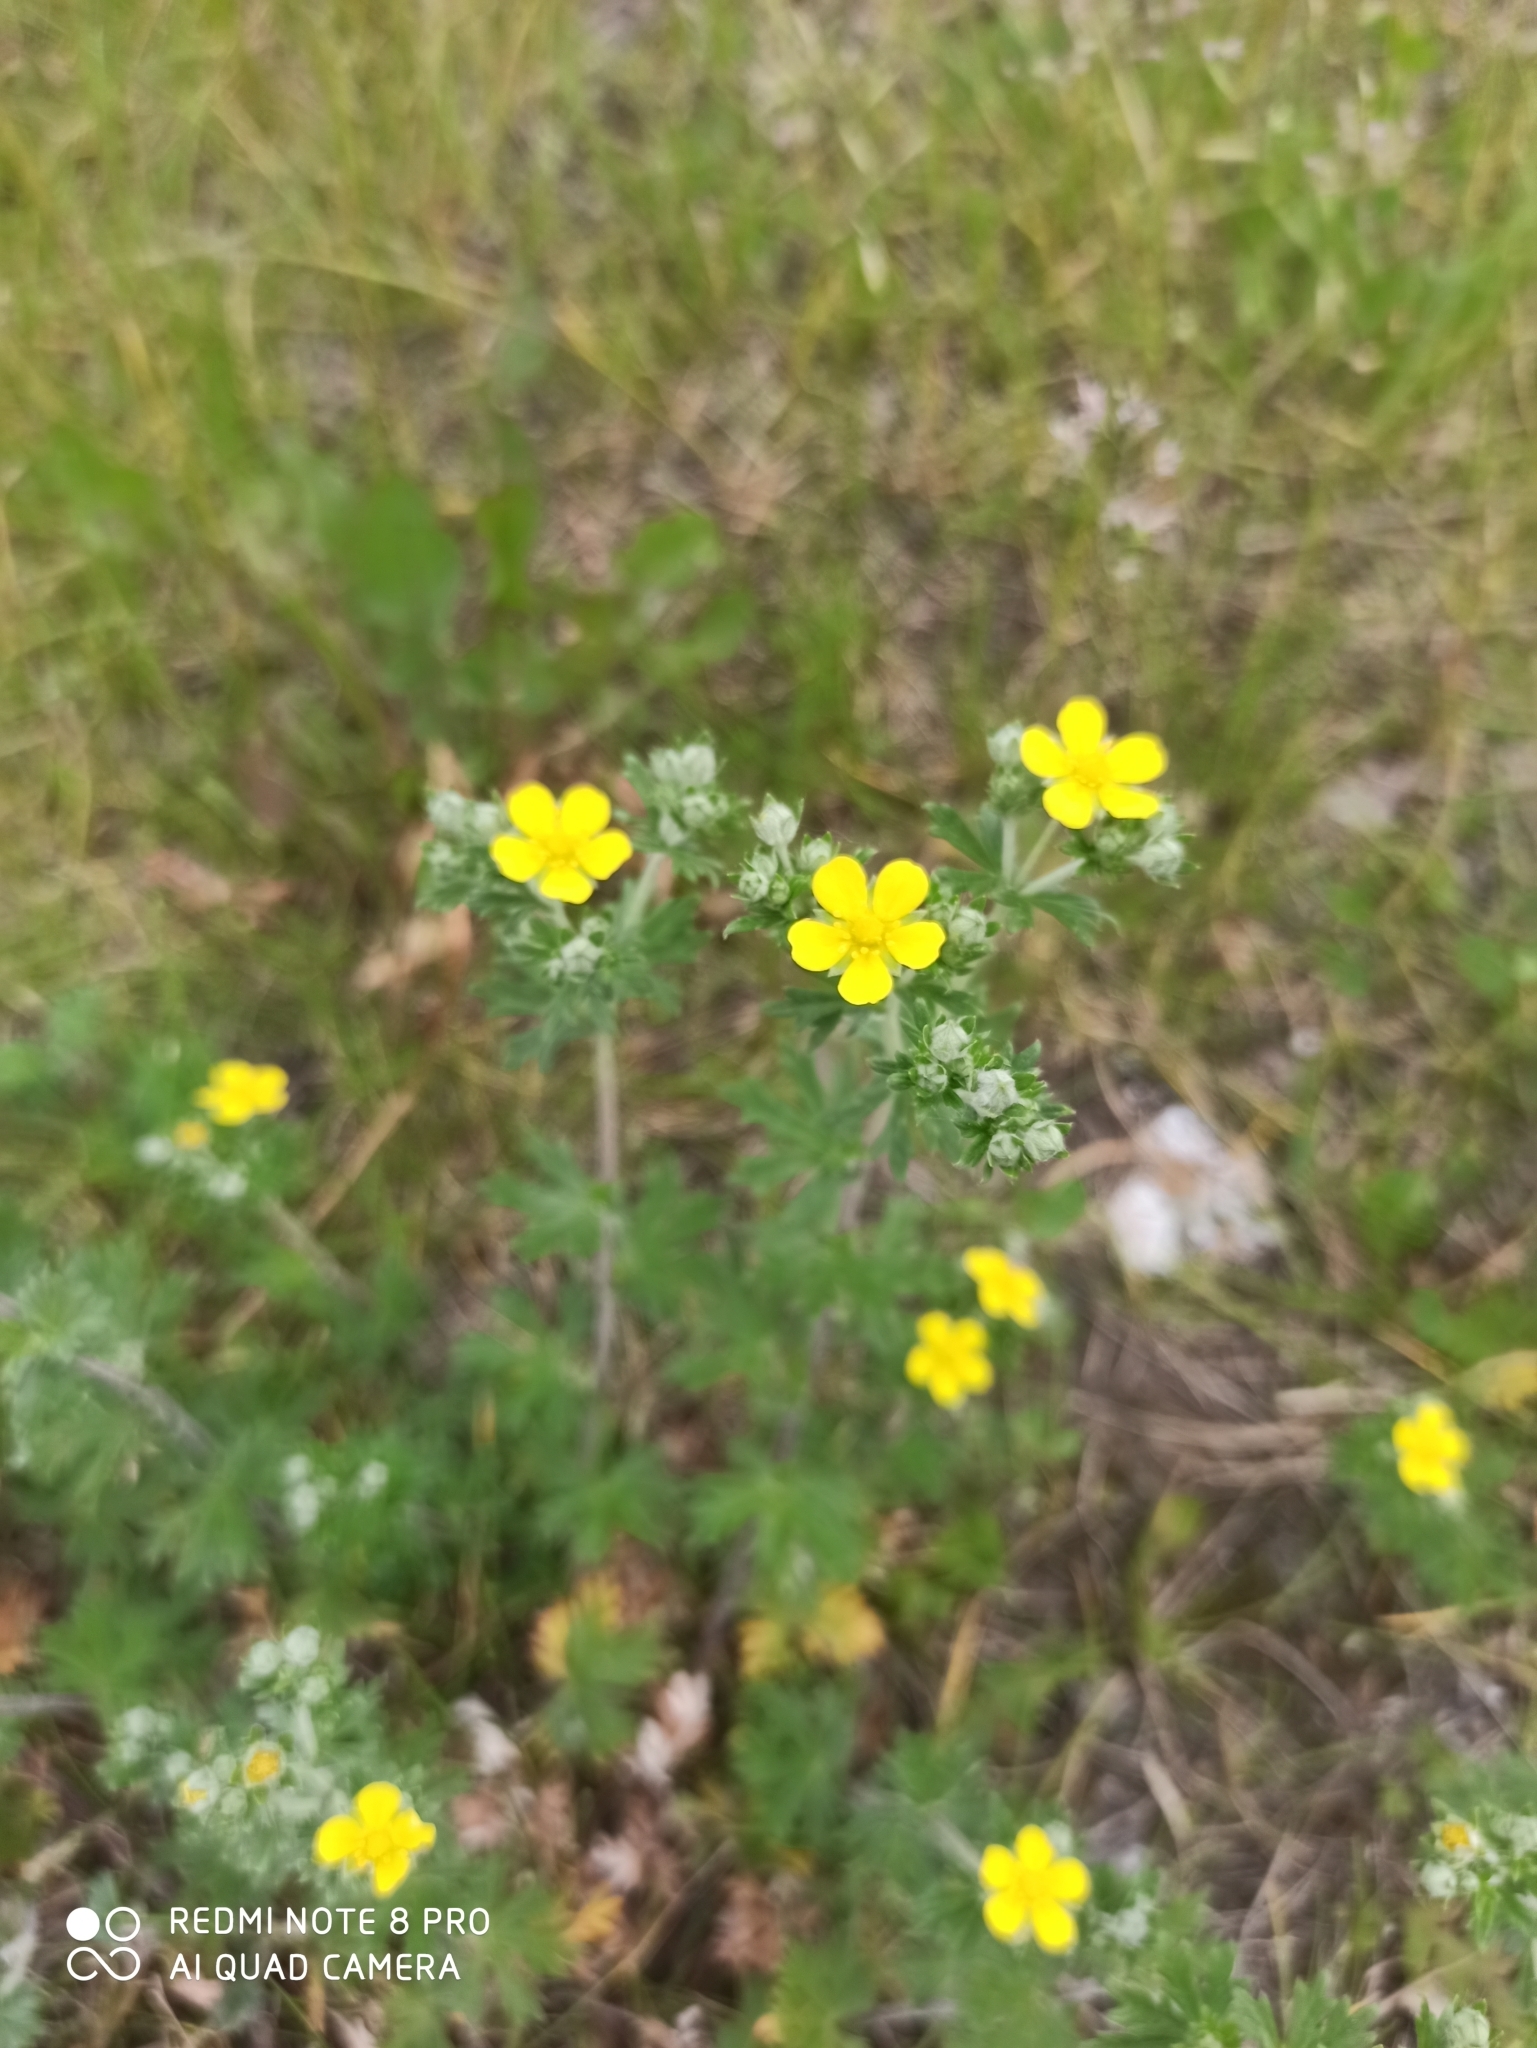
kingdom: Plantae
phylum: Tracheophyta
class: Magnoliopsida
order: Rosales
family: Rosaceae
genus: Potentilla
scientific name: Potentilla argentea
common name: Hoary cinquefoil
